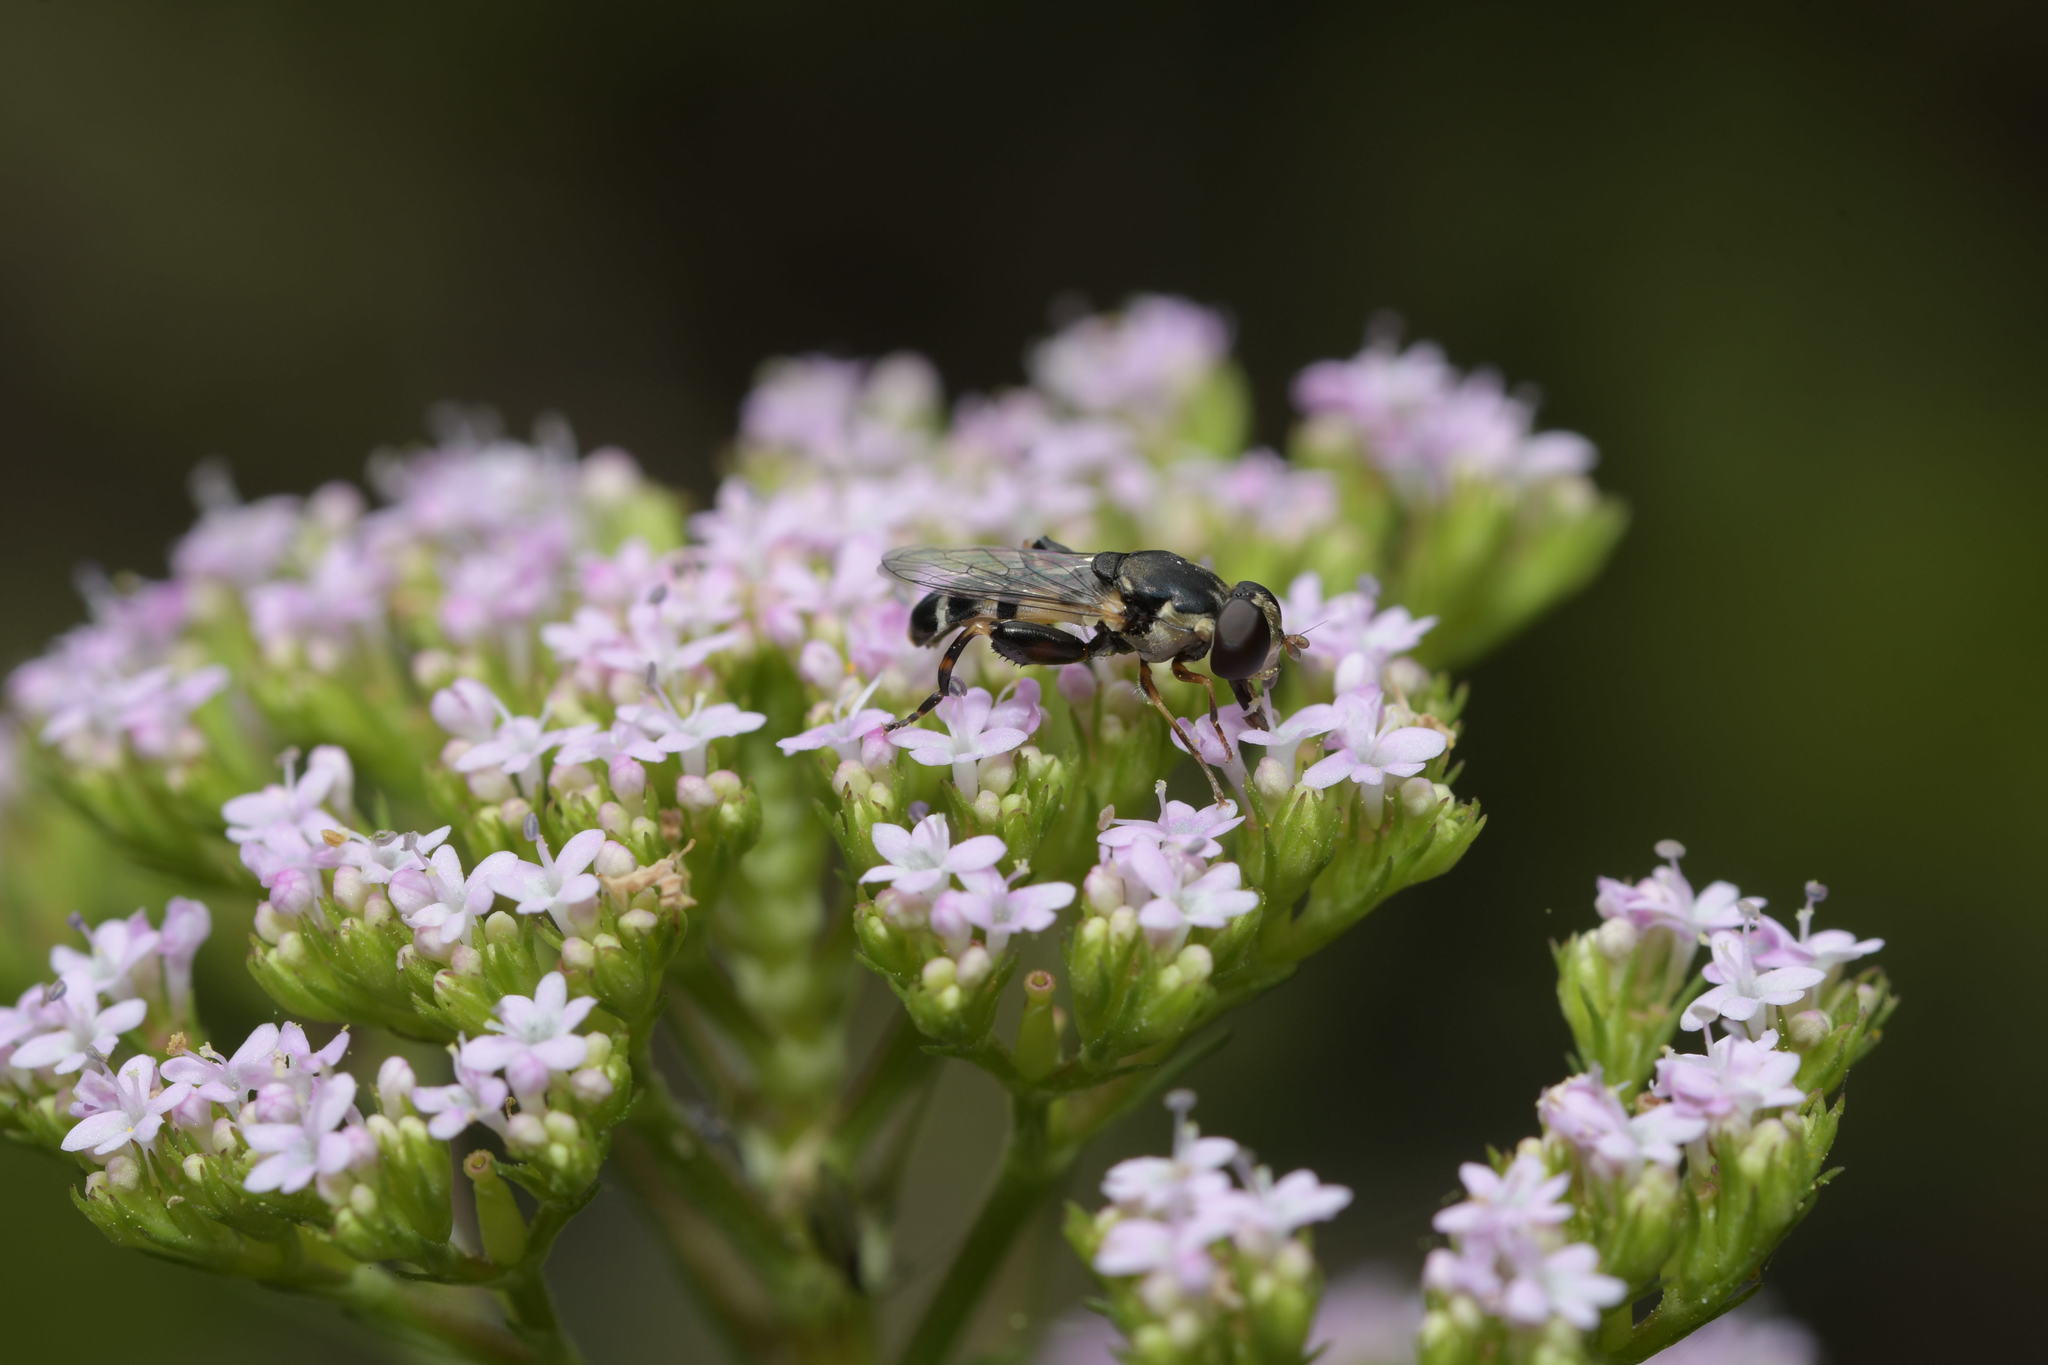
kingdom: Animalia
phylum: Arthropoda
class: Insecta
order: Diptera
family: Syrphidae
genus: Syritta
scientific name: Syritta pipiens
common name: Hover fly
